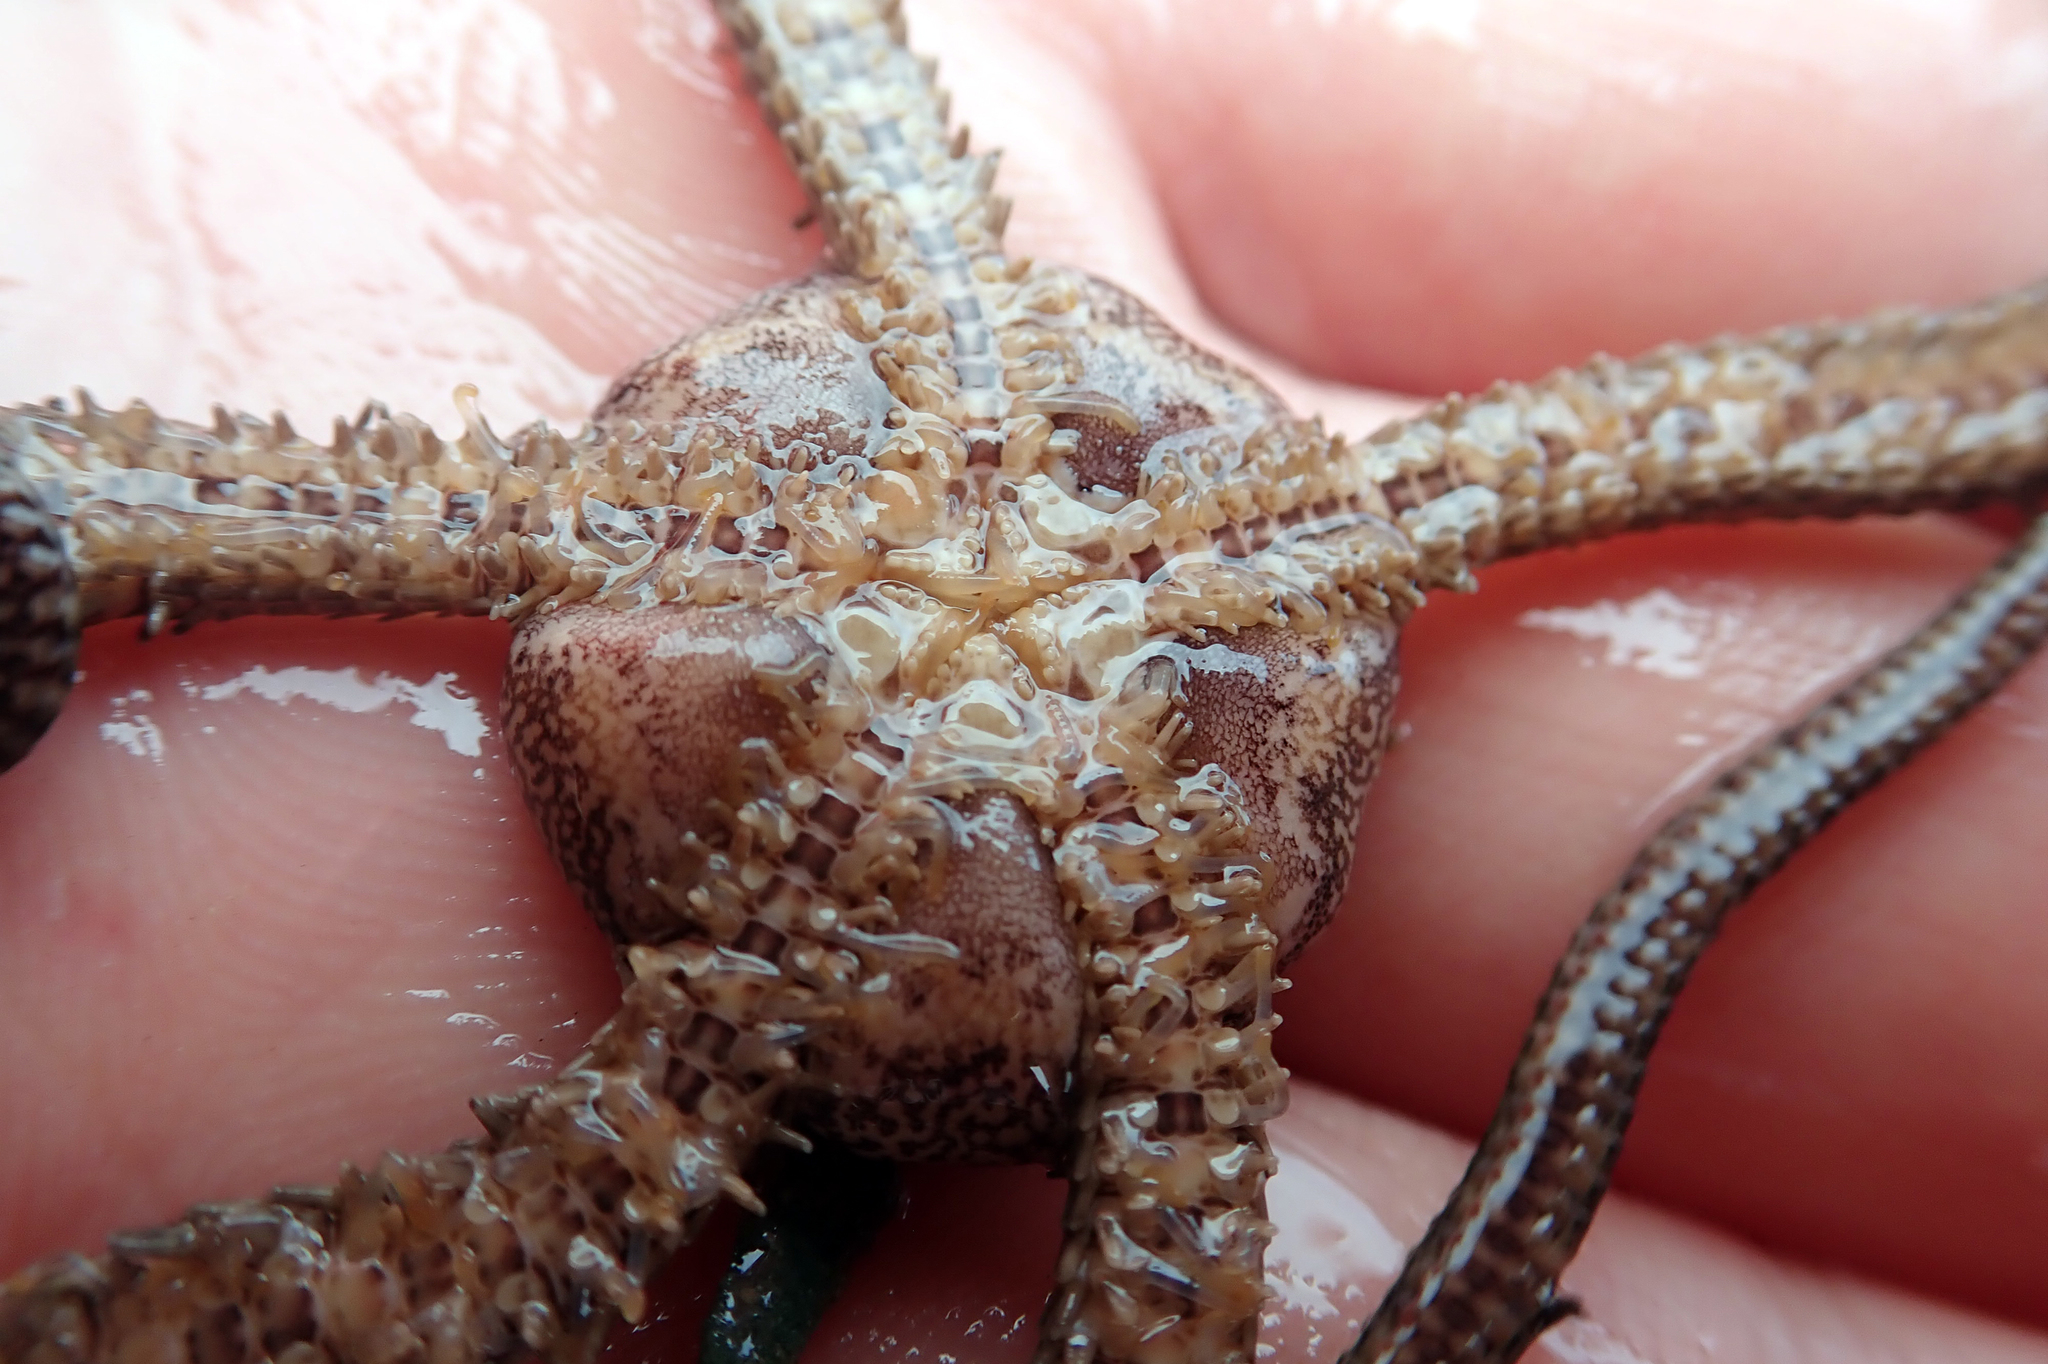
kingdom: Animalia
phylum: Echinodermata
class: Ophiuroidea
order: Amphilepidida
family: Ophionereididae
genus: Ophionereis
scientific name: Ophionereis fasciata
